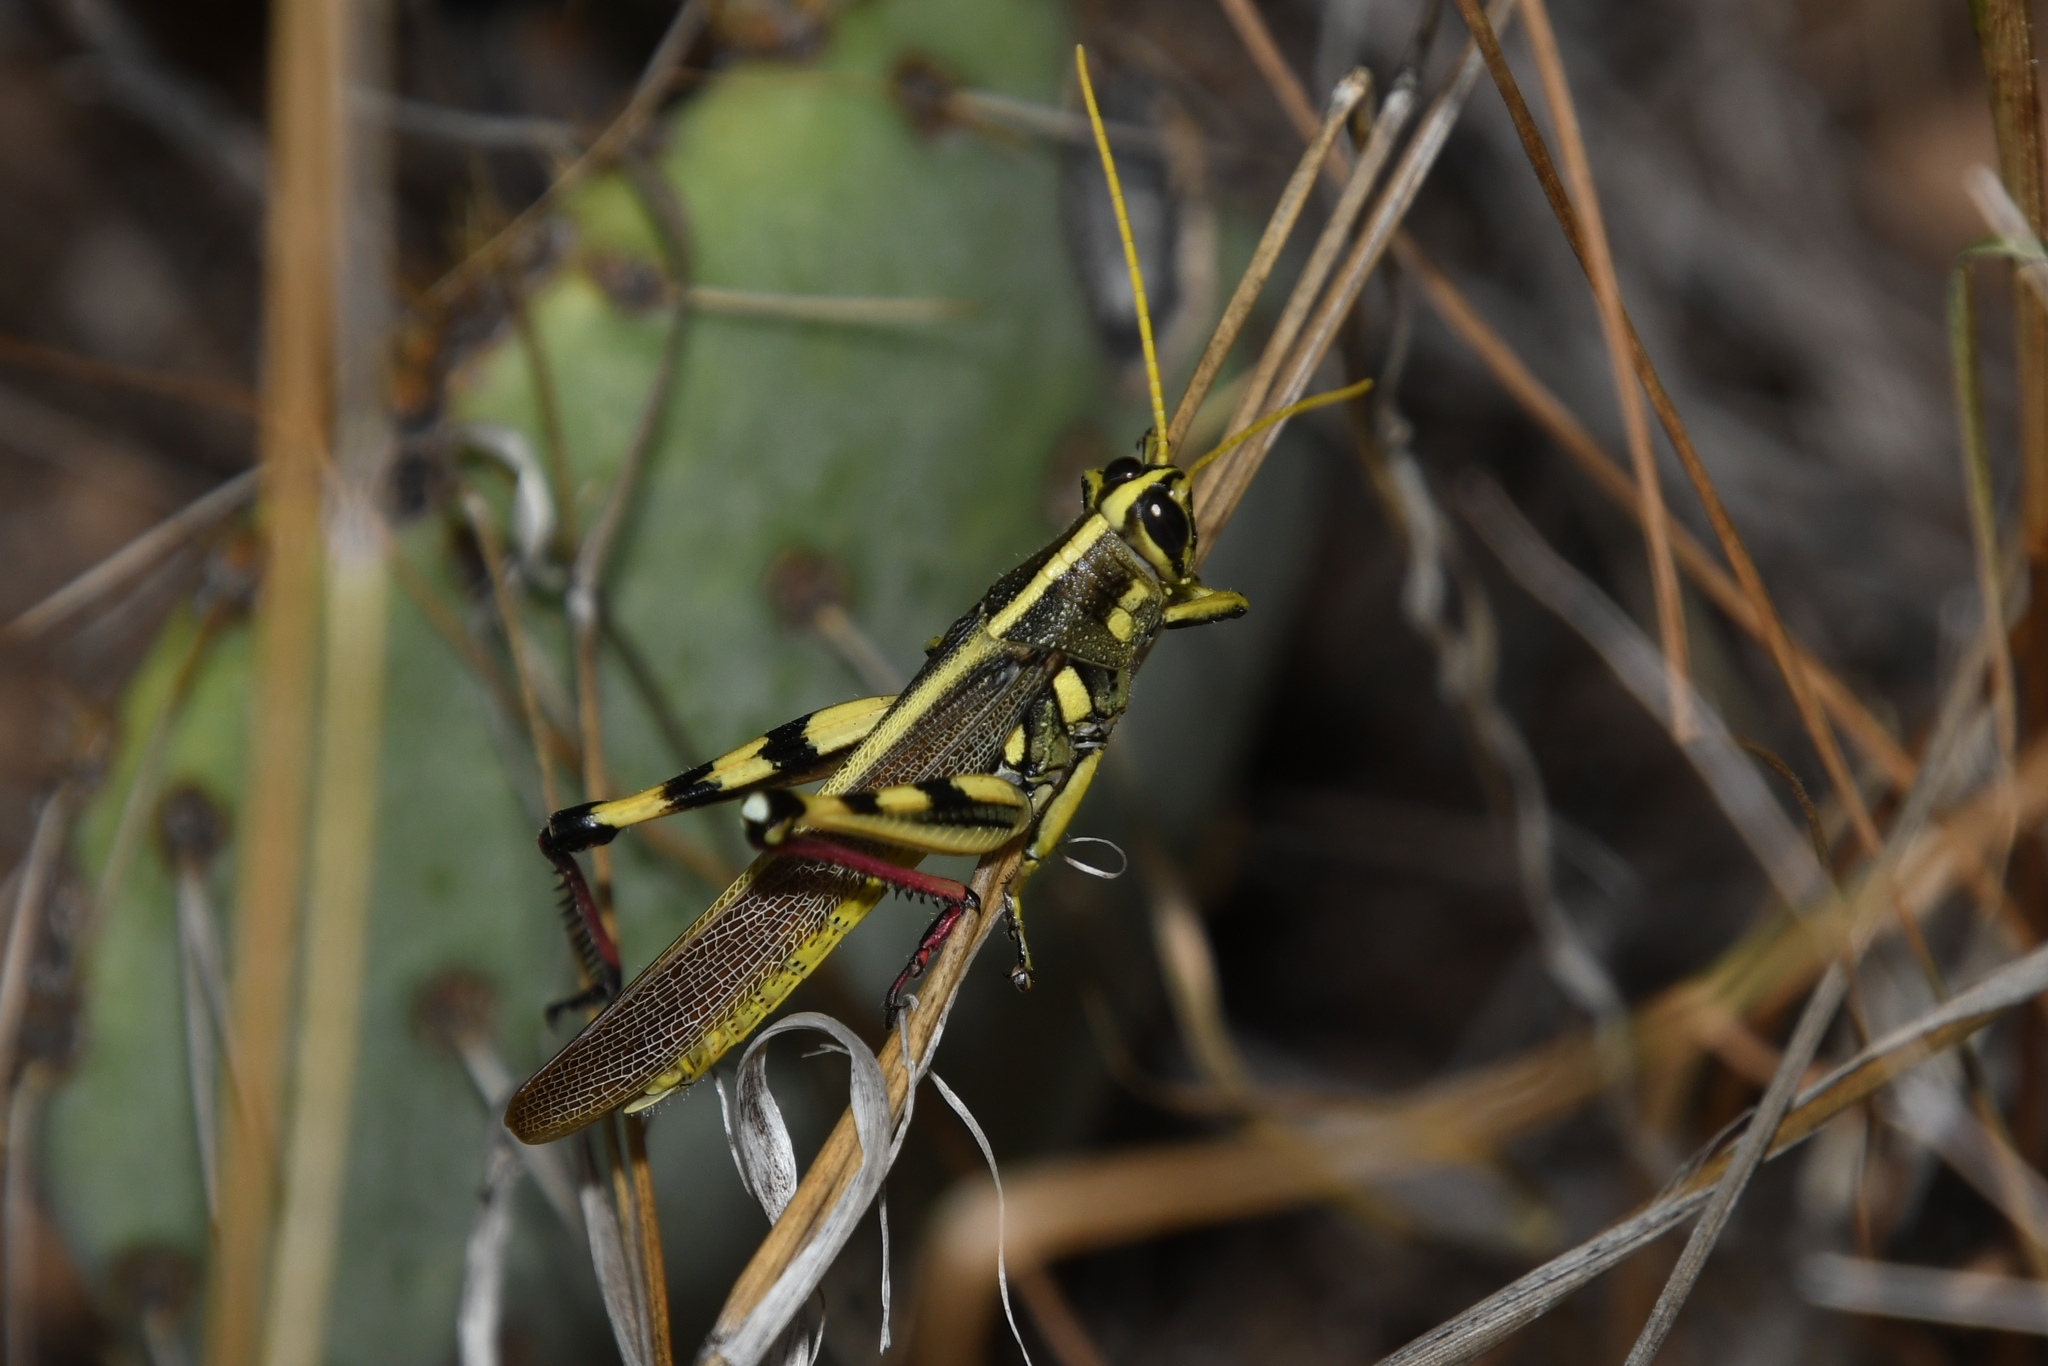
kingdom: Animalia
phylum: Arthropoda
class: Insecta
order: Orthoptera
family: Acrididae
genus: Schistocerca
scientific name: Schistocerca albolineata
